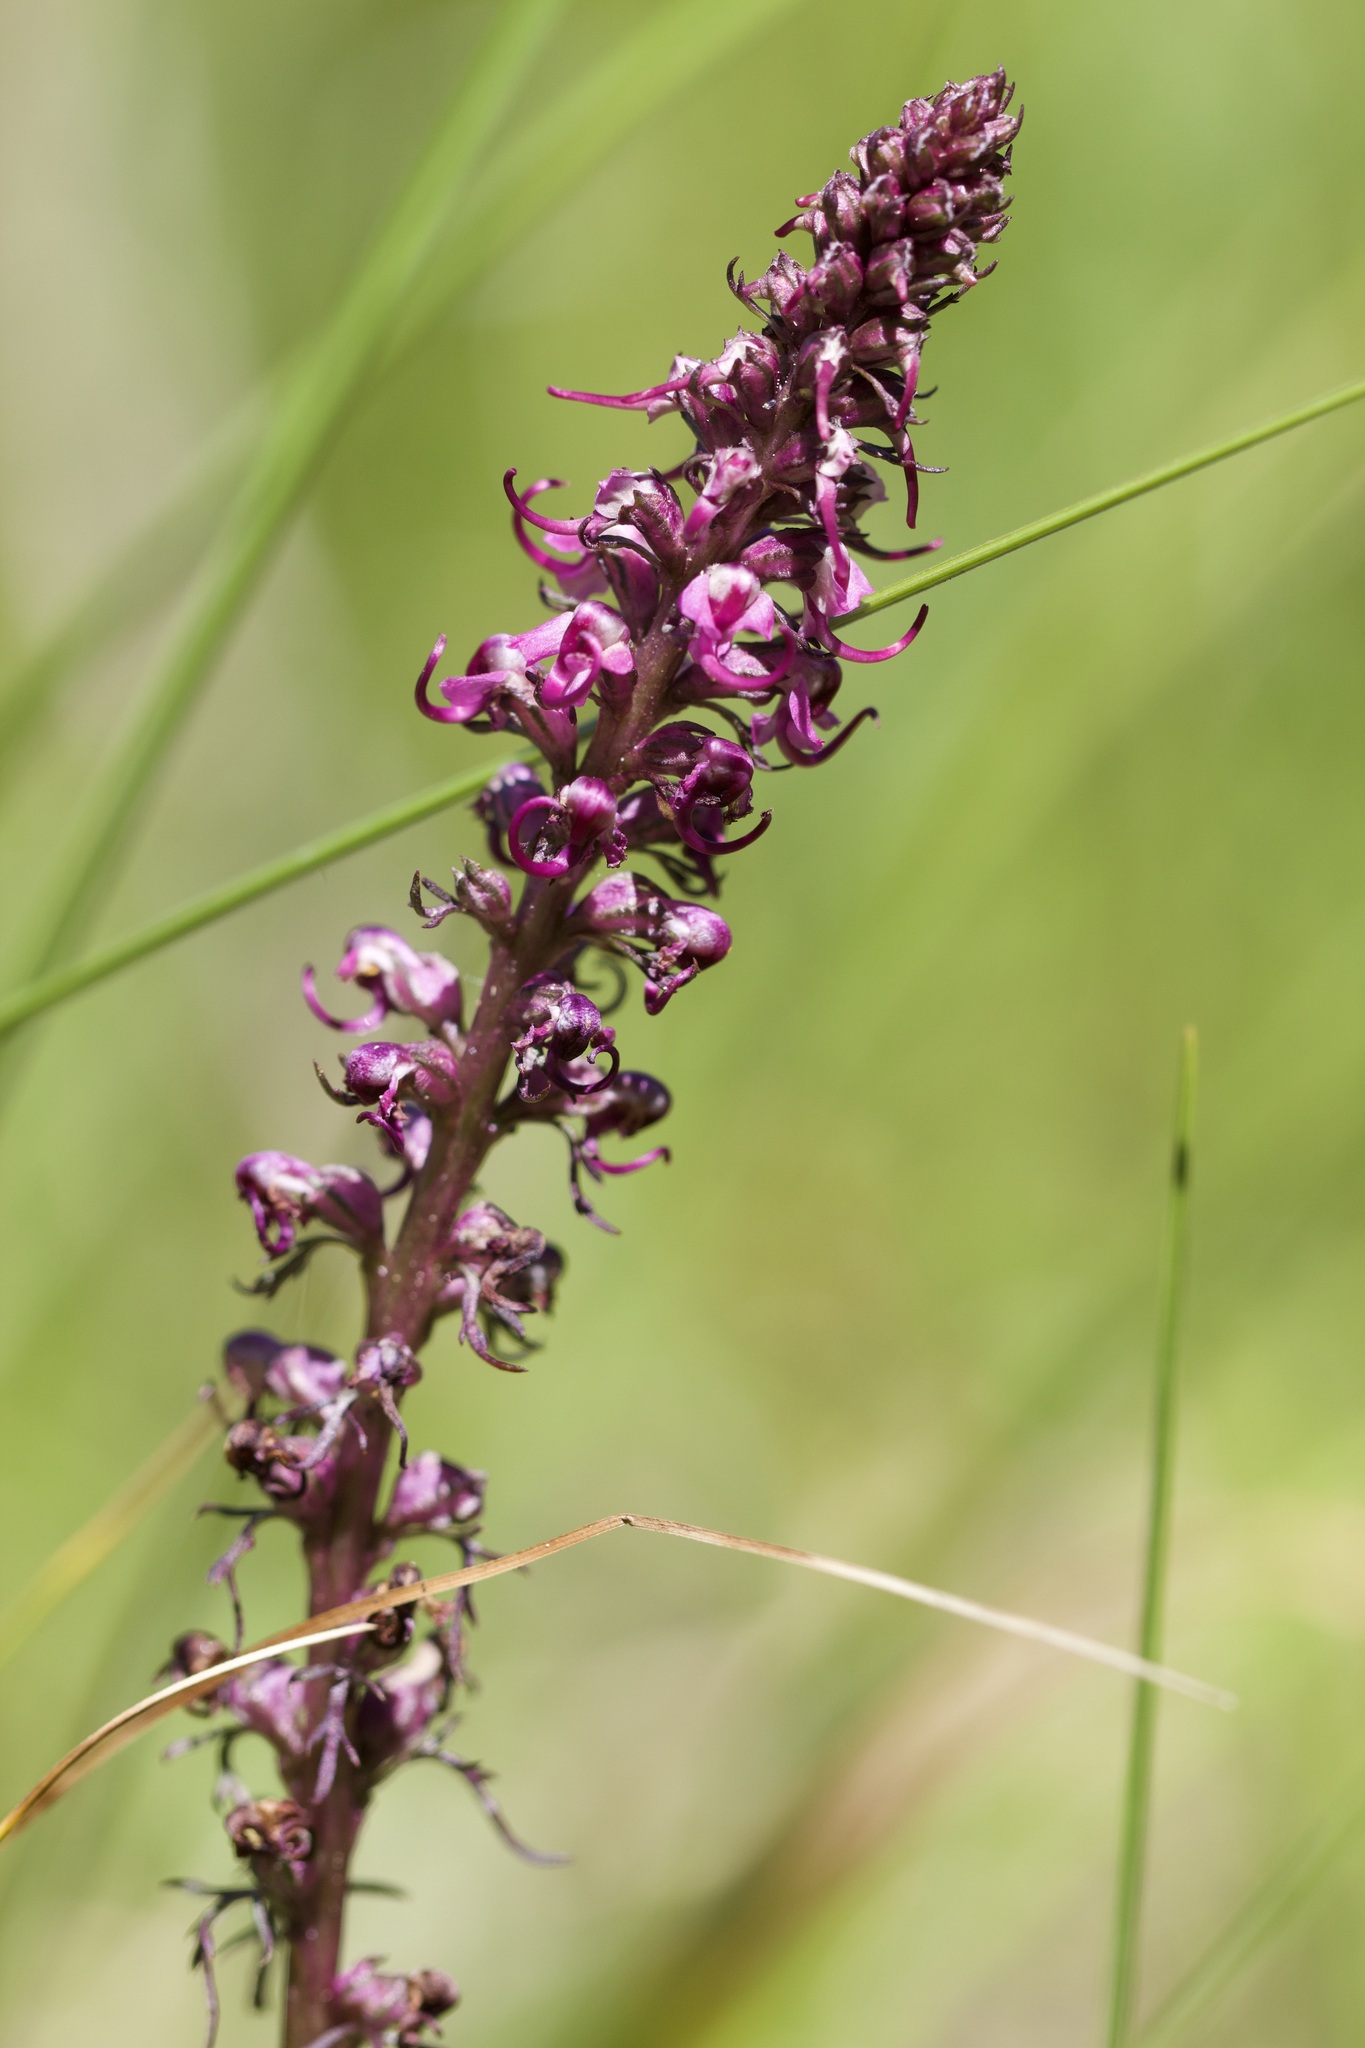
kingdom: Plantae
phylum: Tracheophyta
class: Magnoliopsida
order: Lamiales
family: Orobanchaceae
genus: Pedicularis
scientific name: Pedicularis groenlandica
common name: Elephant's-head
